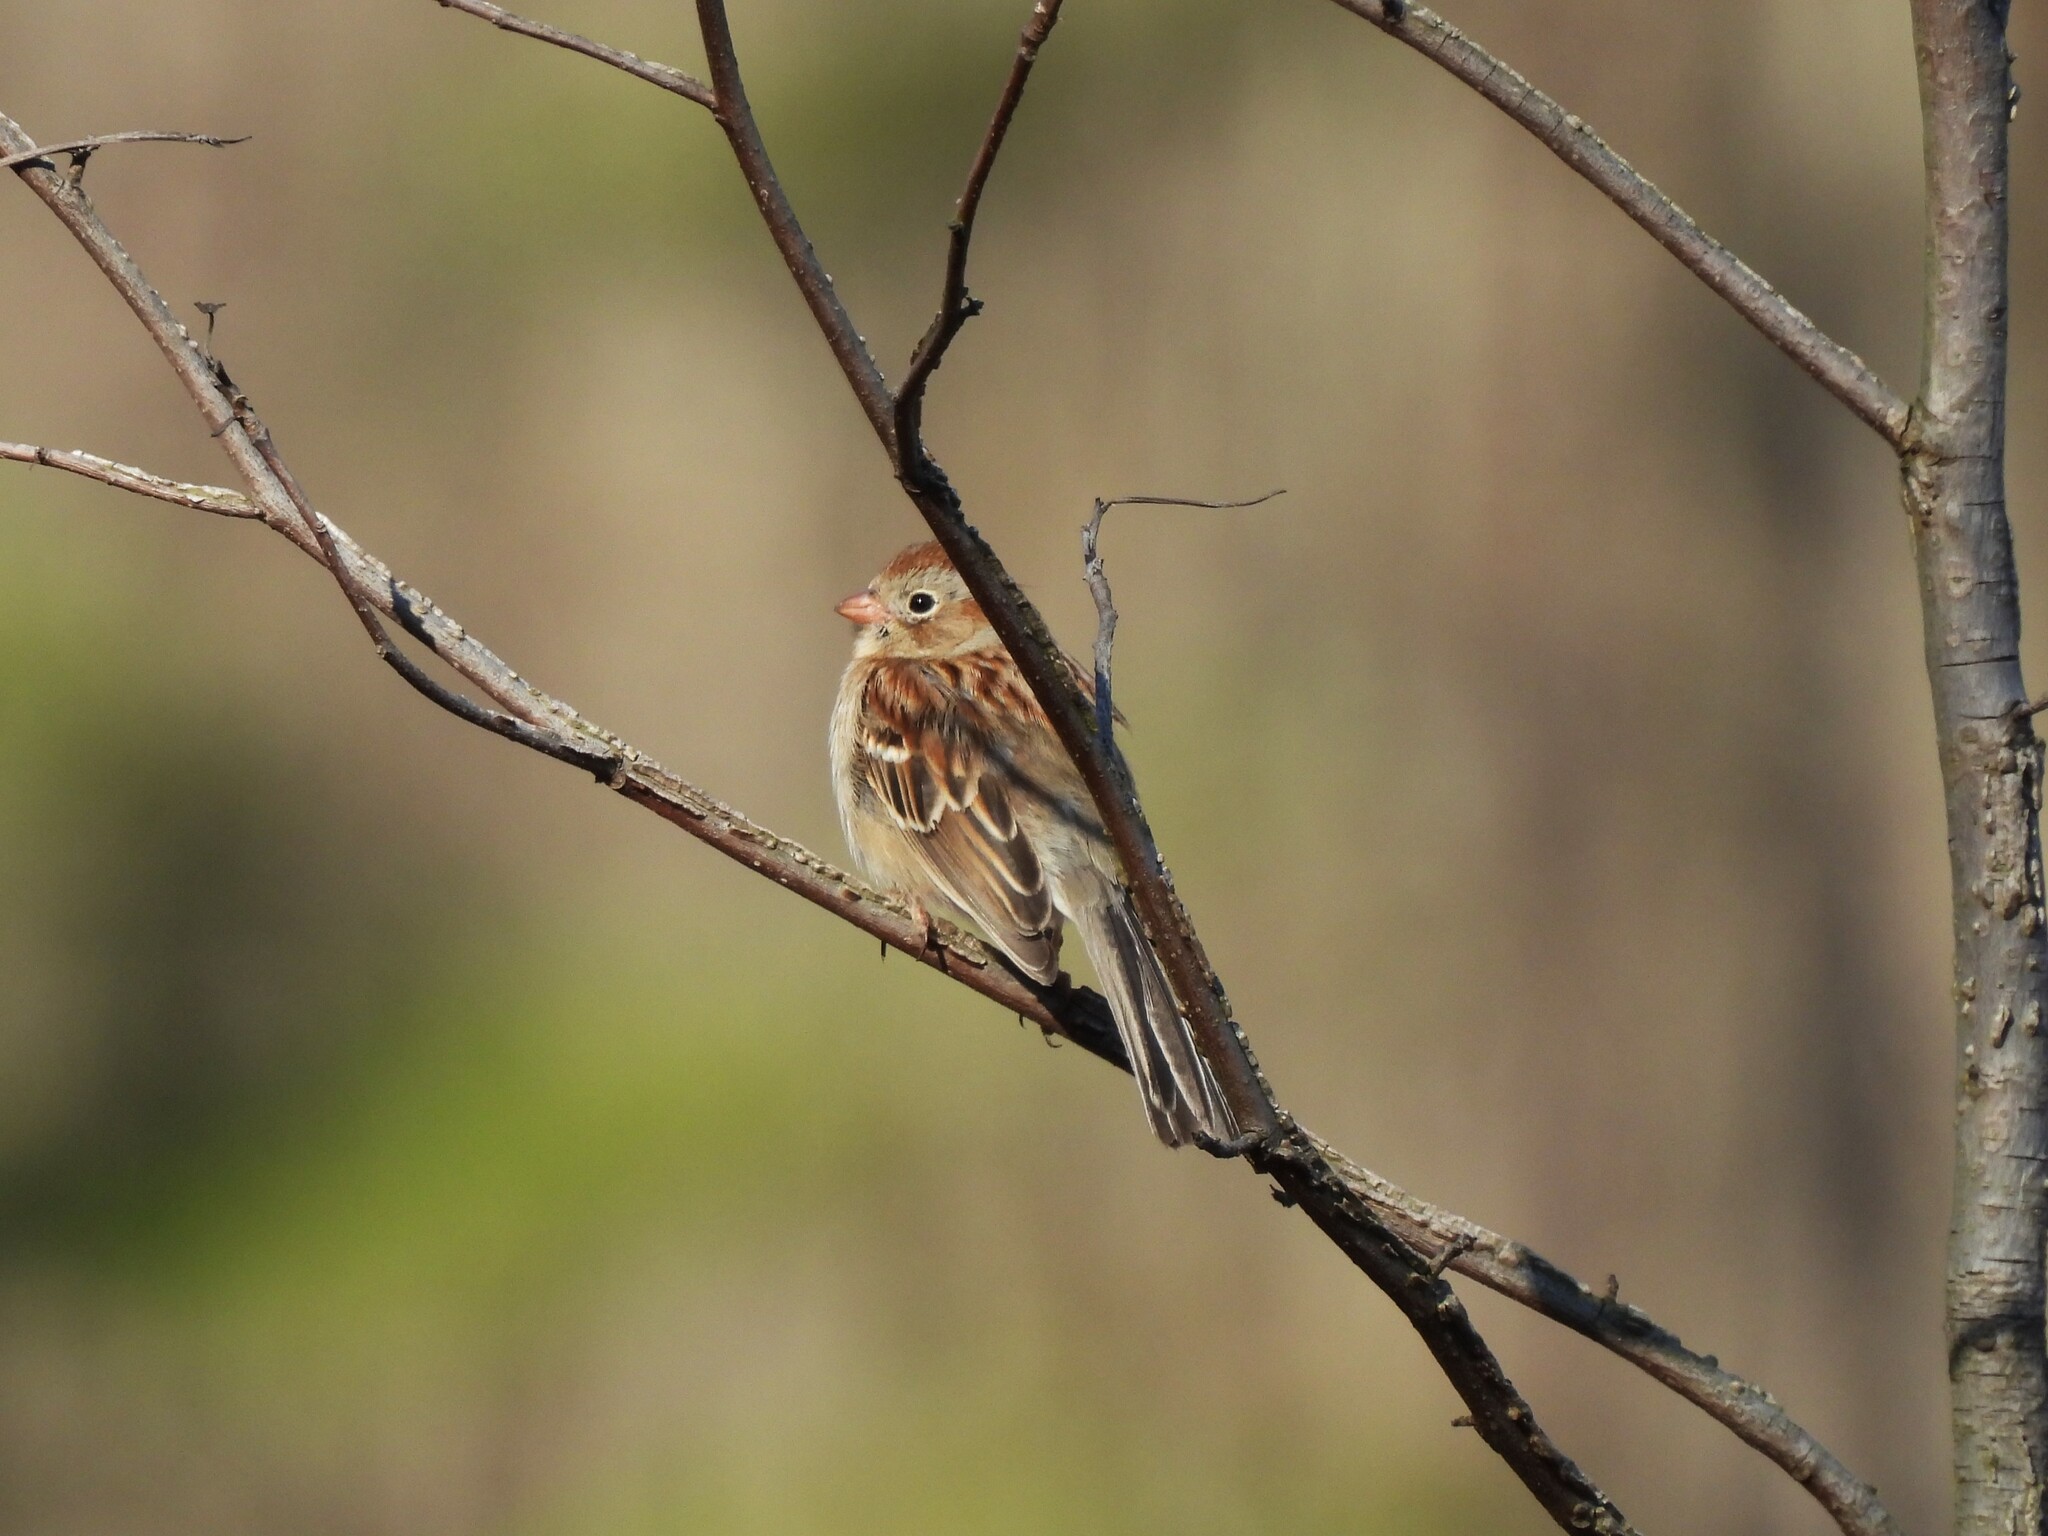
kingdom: Animalia
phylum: Chordata
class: Aves
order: Passeriformes
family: Passerellidae
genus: Spizella
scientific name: Spizella pusilla
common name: Field sparrow
